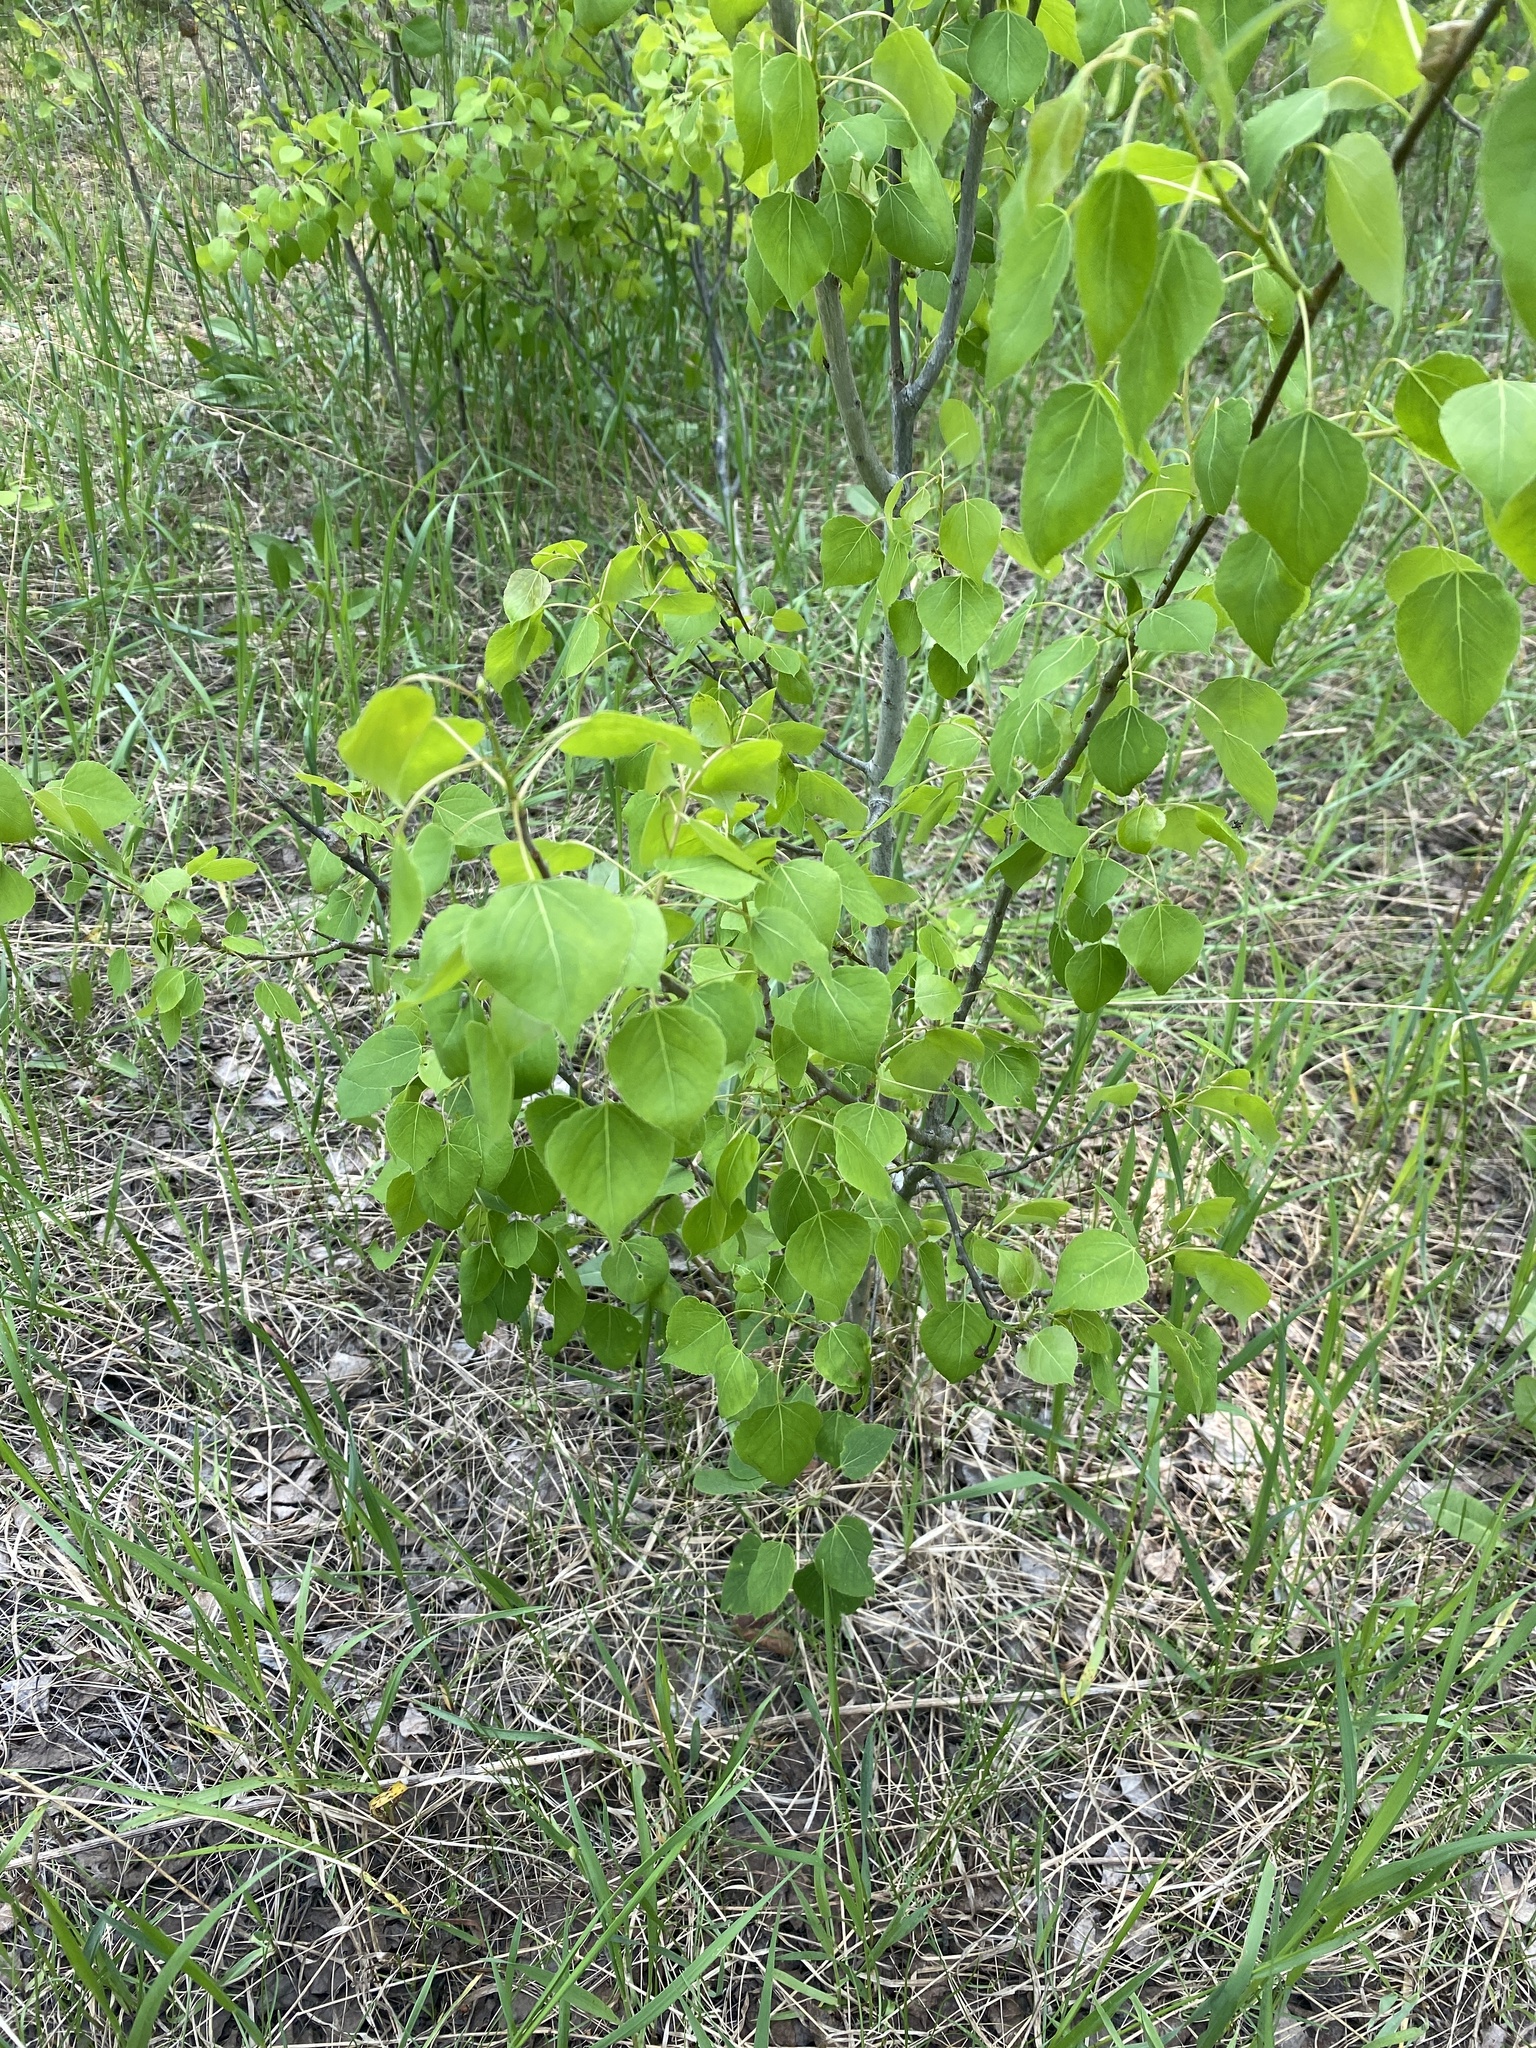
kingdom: Plantae
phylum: Tracheophyta
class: Magnoliopsida
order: Malpighiales
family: Salicaceae
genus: Populus
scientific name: Populus tremuloides
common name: Quaking aspen
